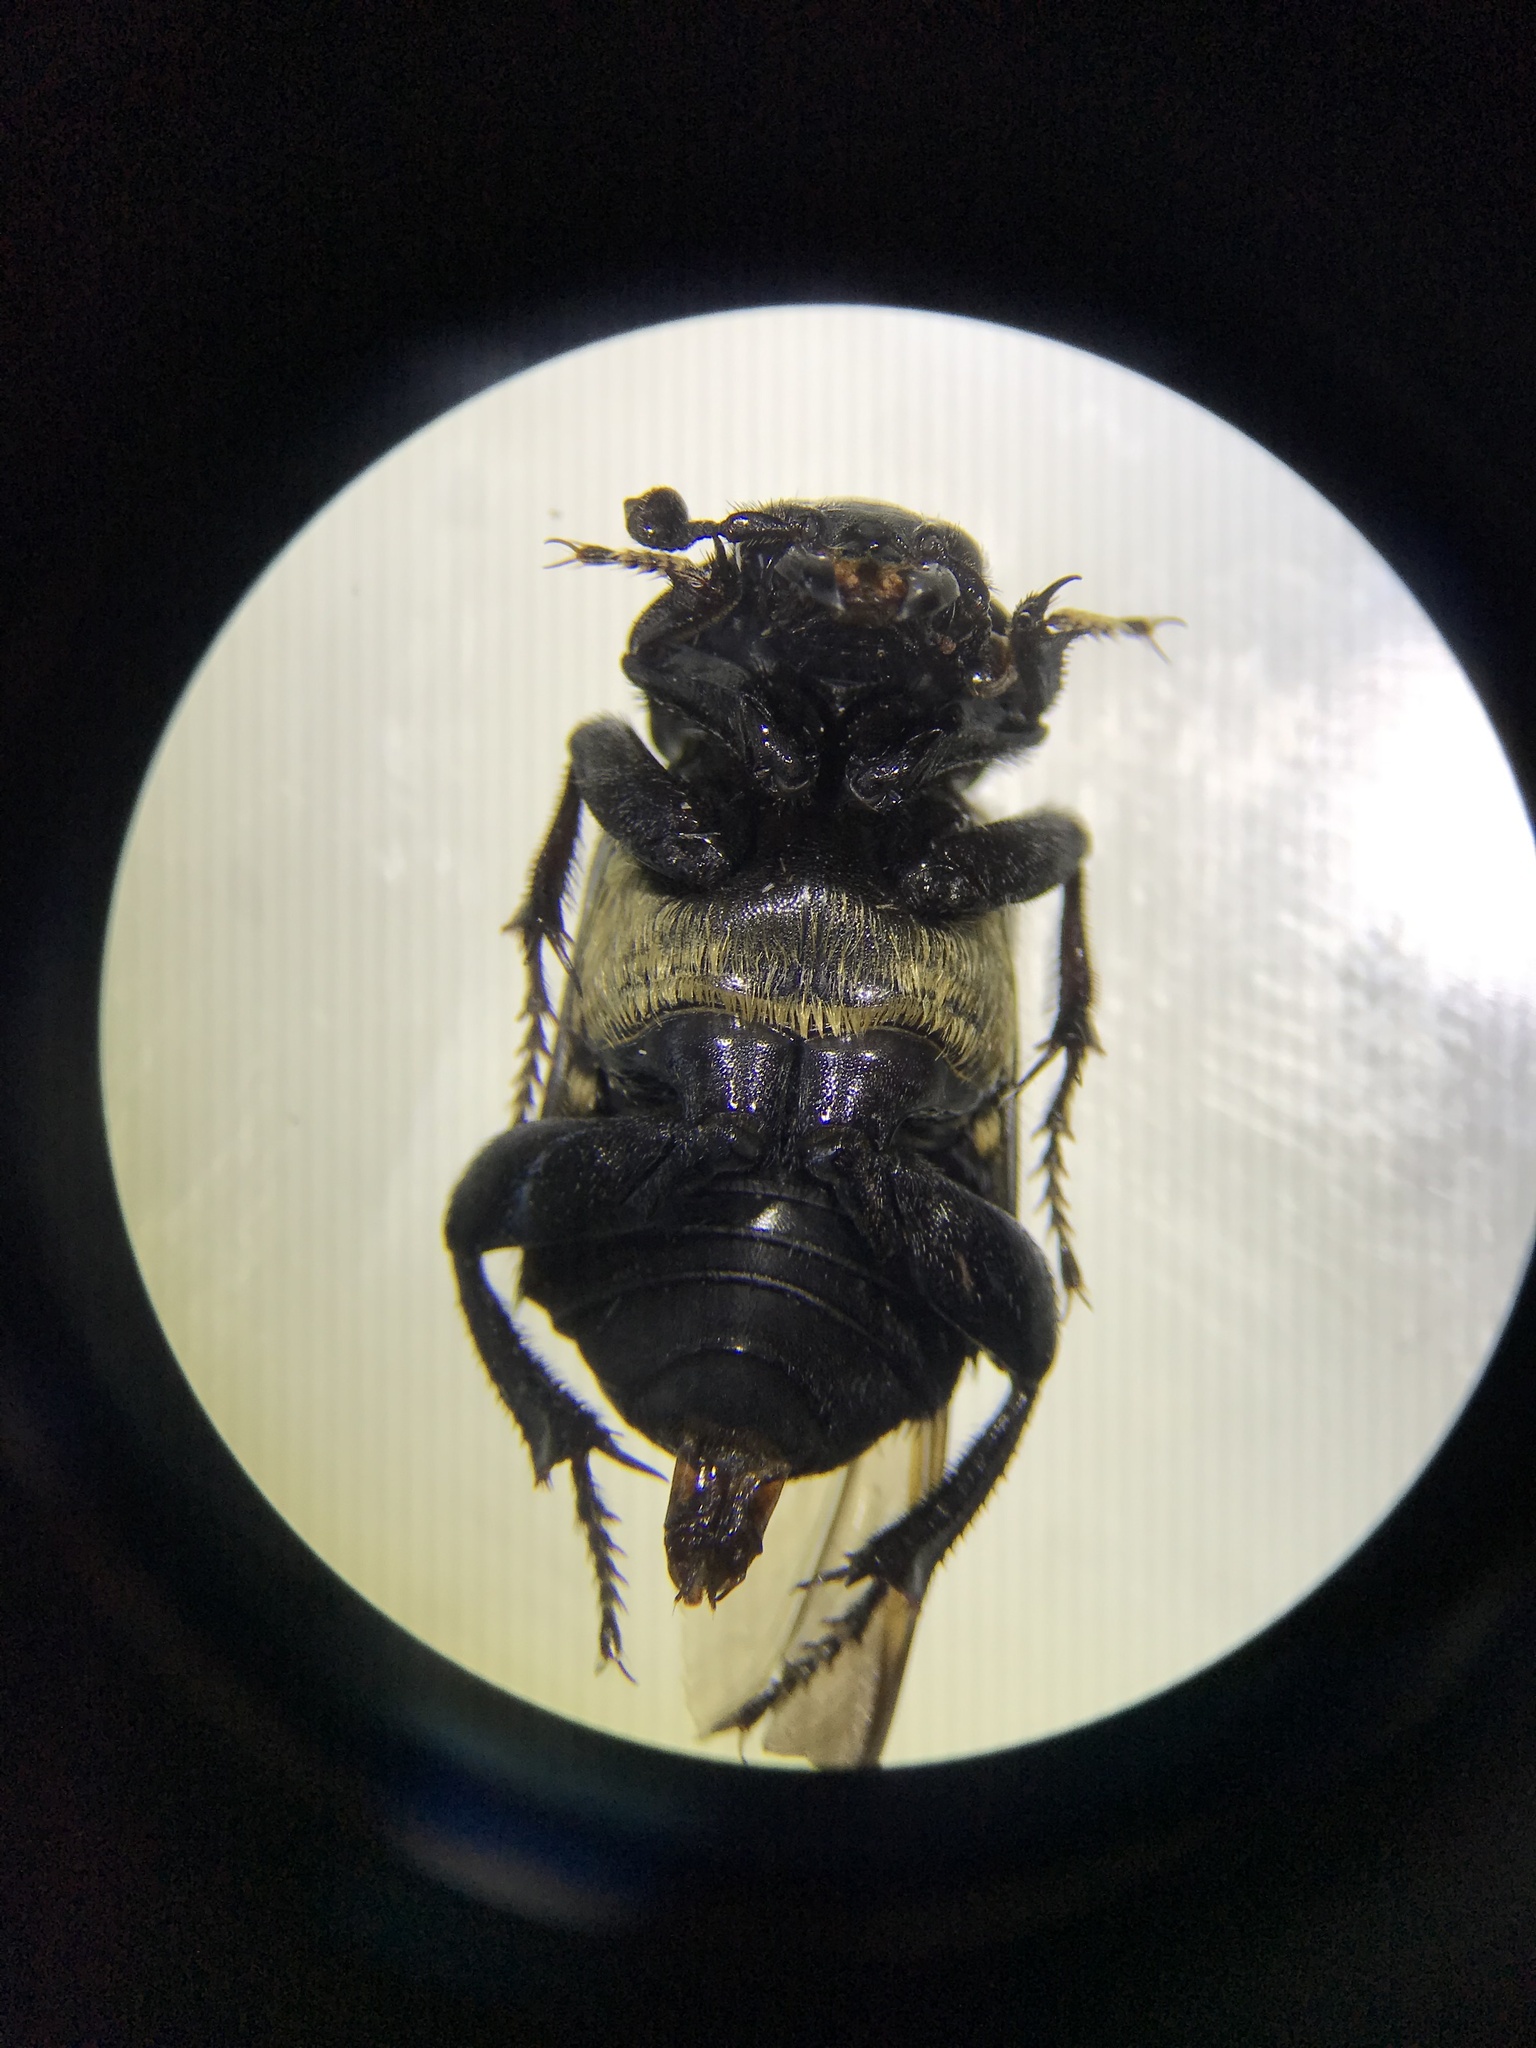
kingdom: Animalia
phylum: Arthropoda
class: Insecta
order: Coleoptera
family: Staphylinidae
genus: Nicrophorus
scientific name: Nicrophorus guttula
